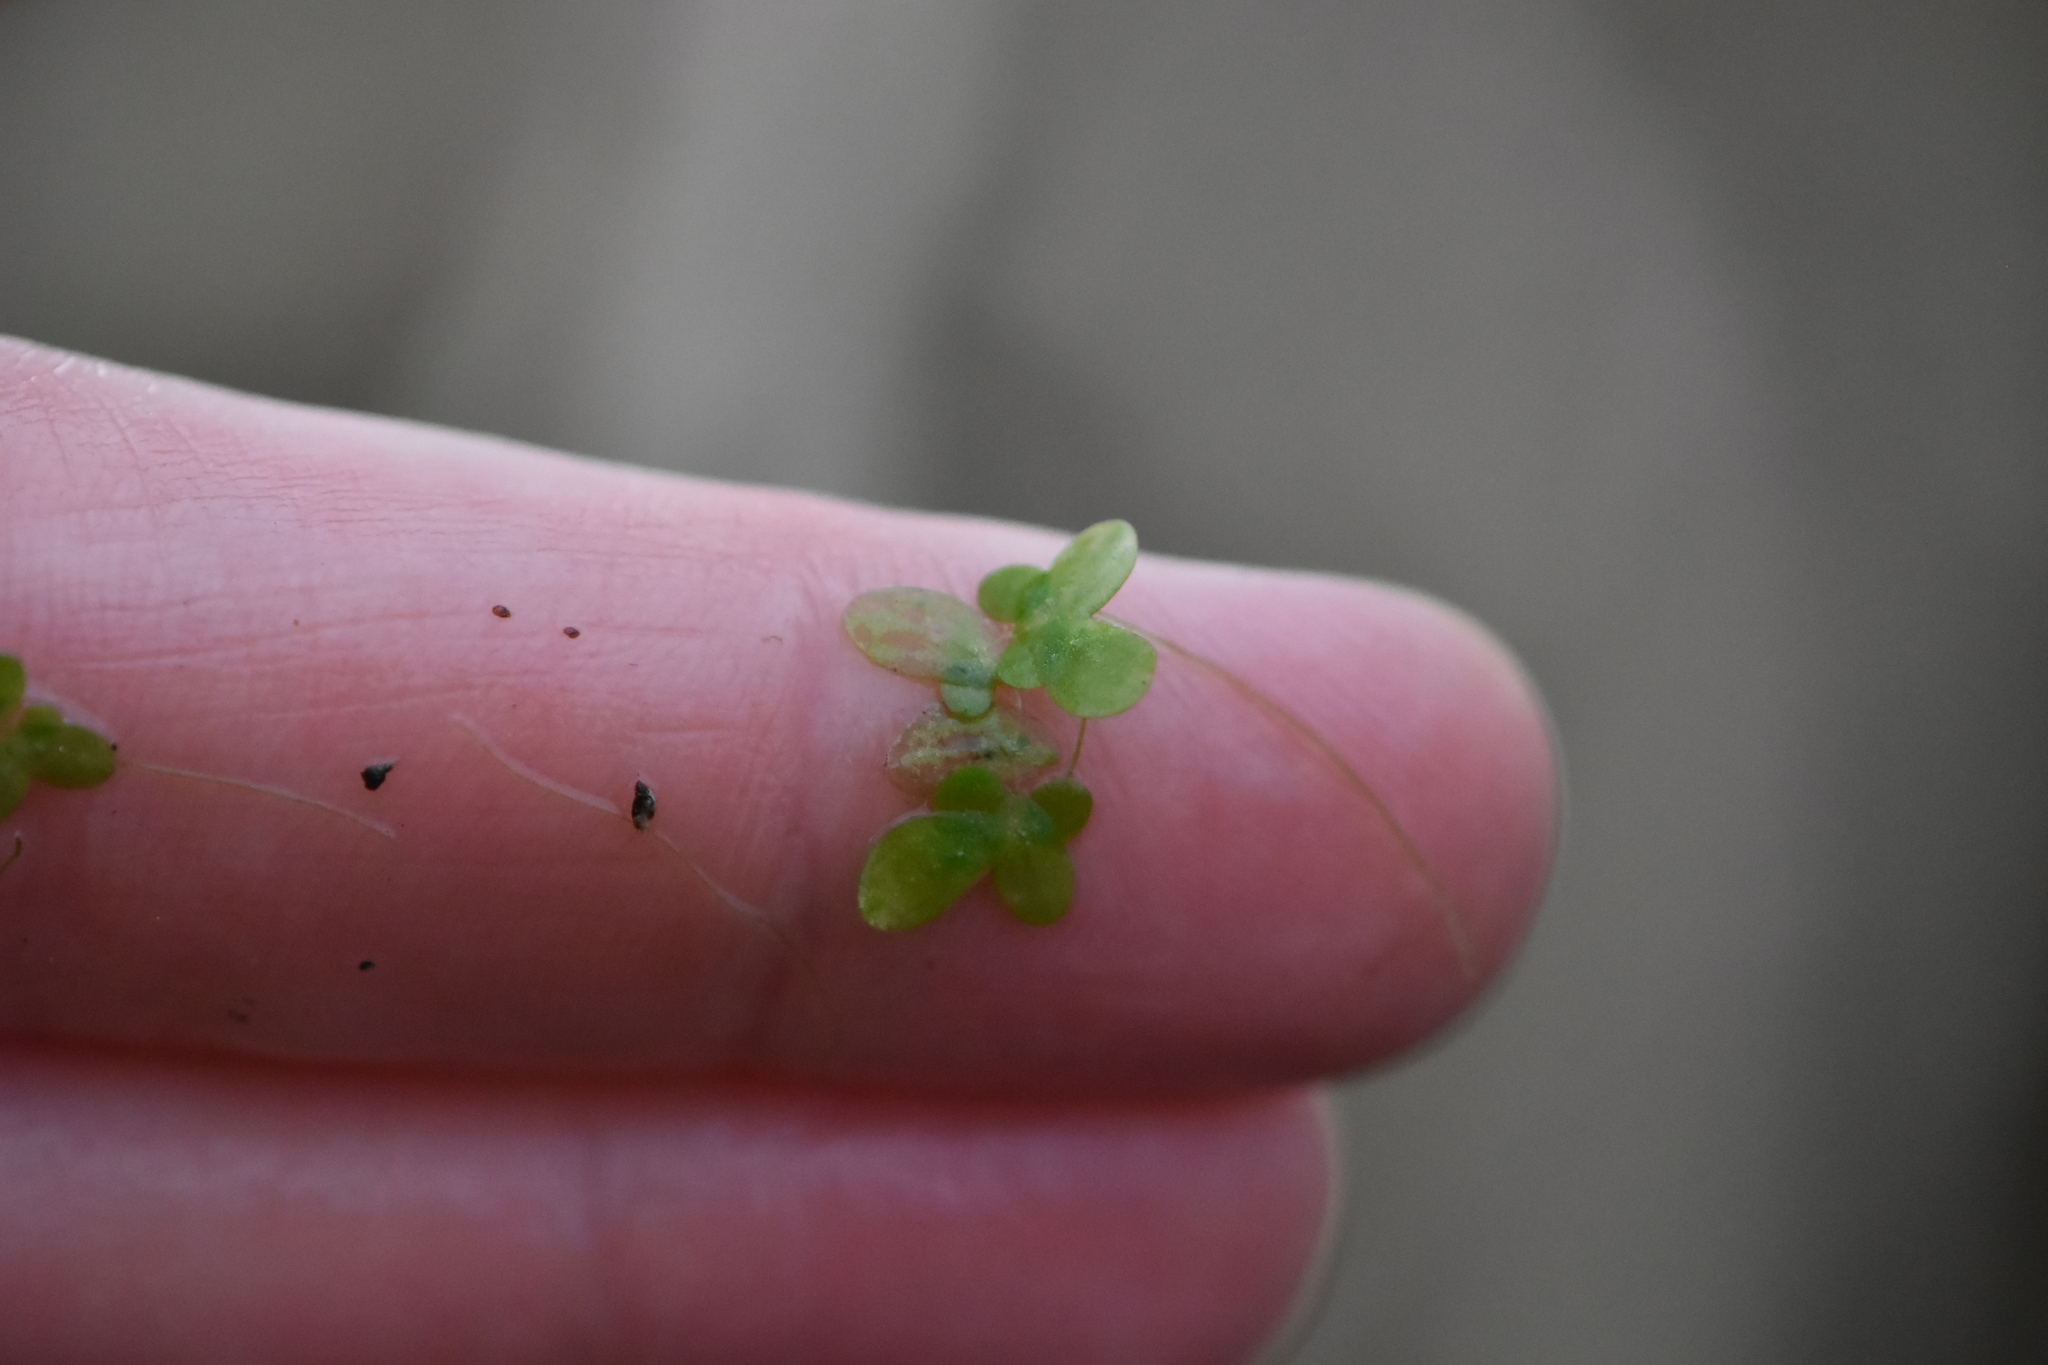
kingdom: Plantae
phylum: Tracheophyta
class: Liliopsida
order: Alismatales
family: Araceae
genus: Lemna
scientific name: Lemna minor
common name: Common duckweed
